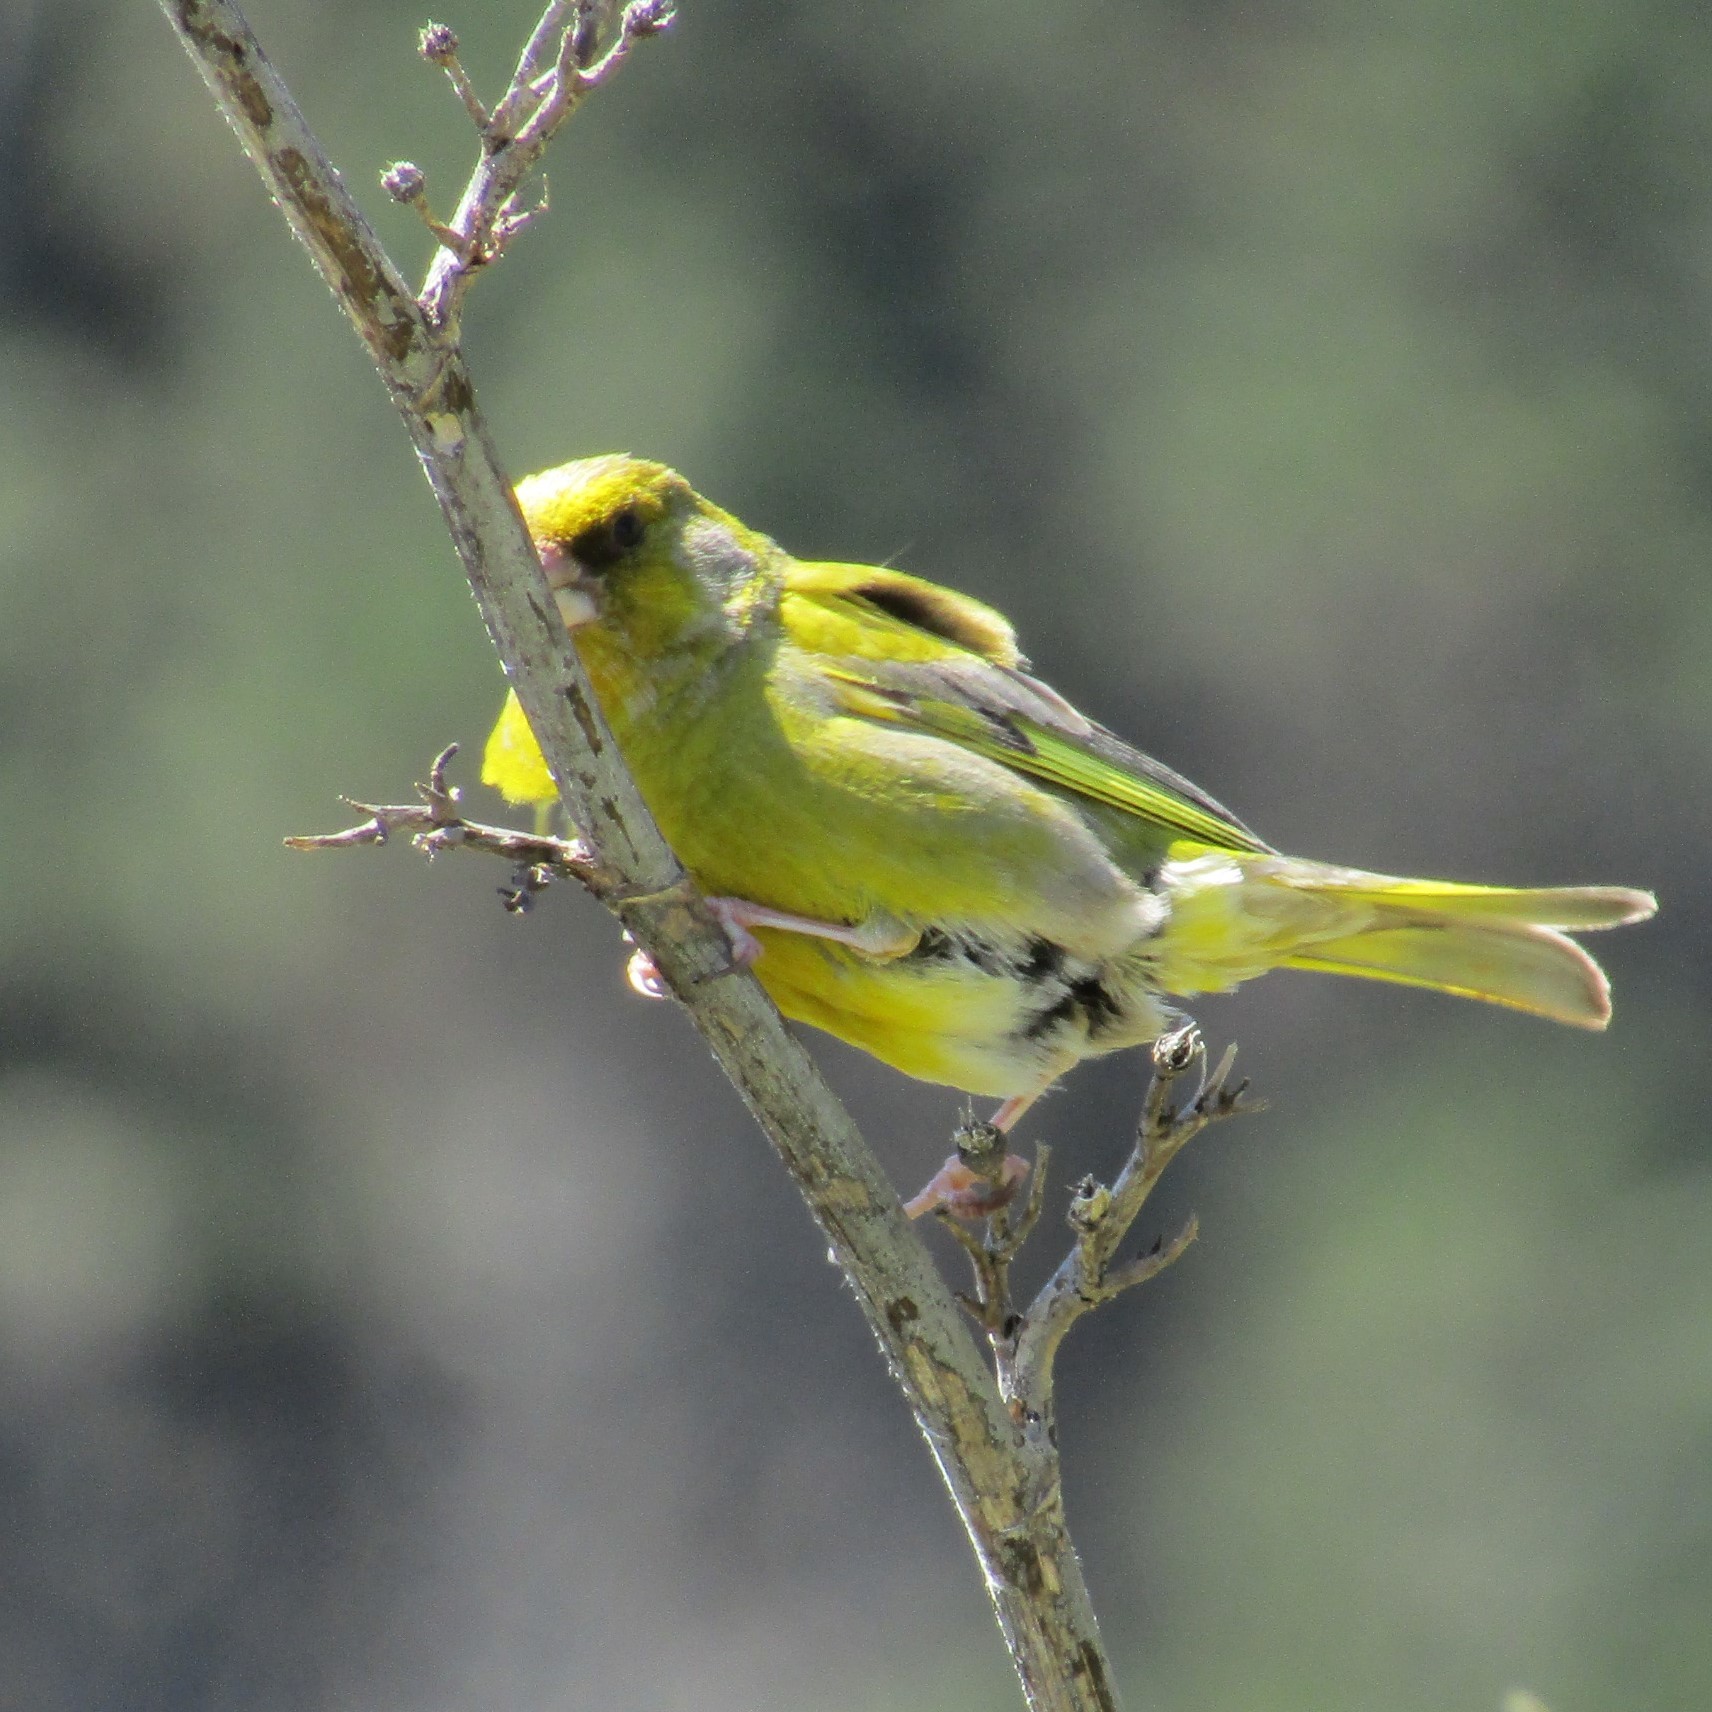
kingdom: Plantae
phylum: Tracheophyta
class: Liliopsida
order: Poales
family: Poaceae
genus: Chloris
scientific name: Chloris chloris
